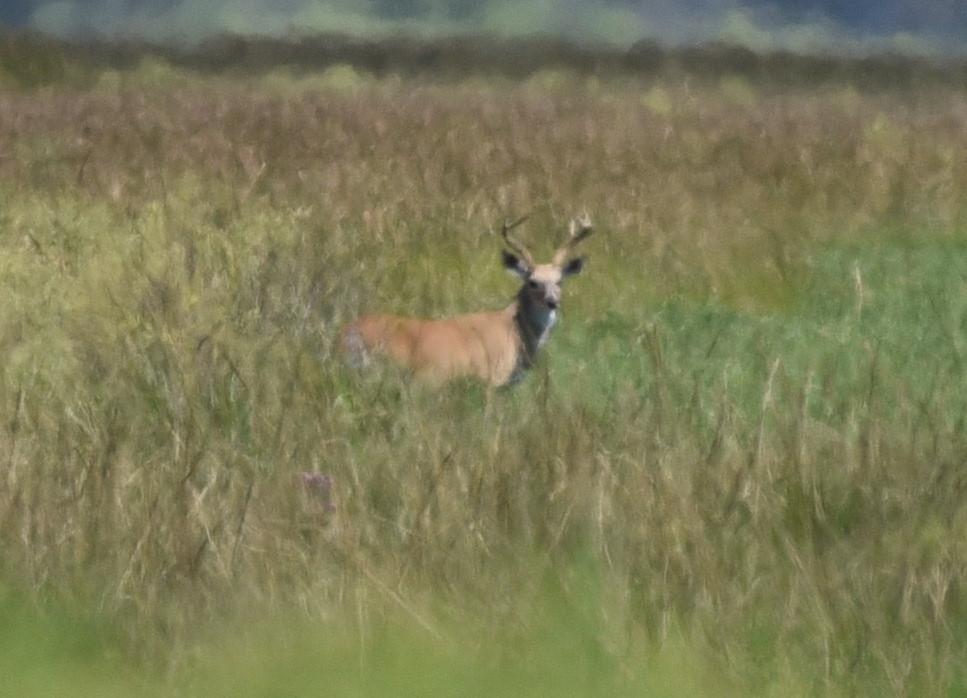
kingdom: Animalia
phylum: Chordata
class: Mammalia
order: Artiodactyla
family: Cervidae
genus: Odocoileus
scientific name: Odocoileus virginianus
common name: White-tailed deer
